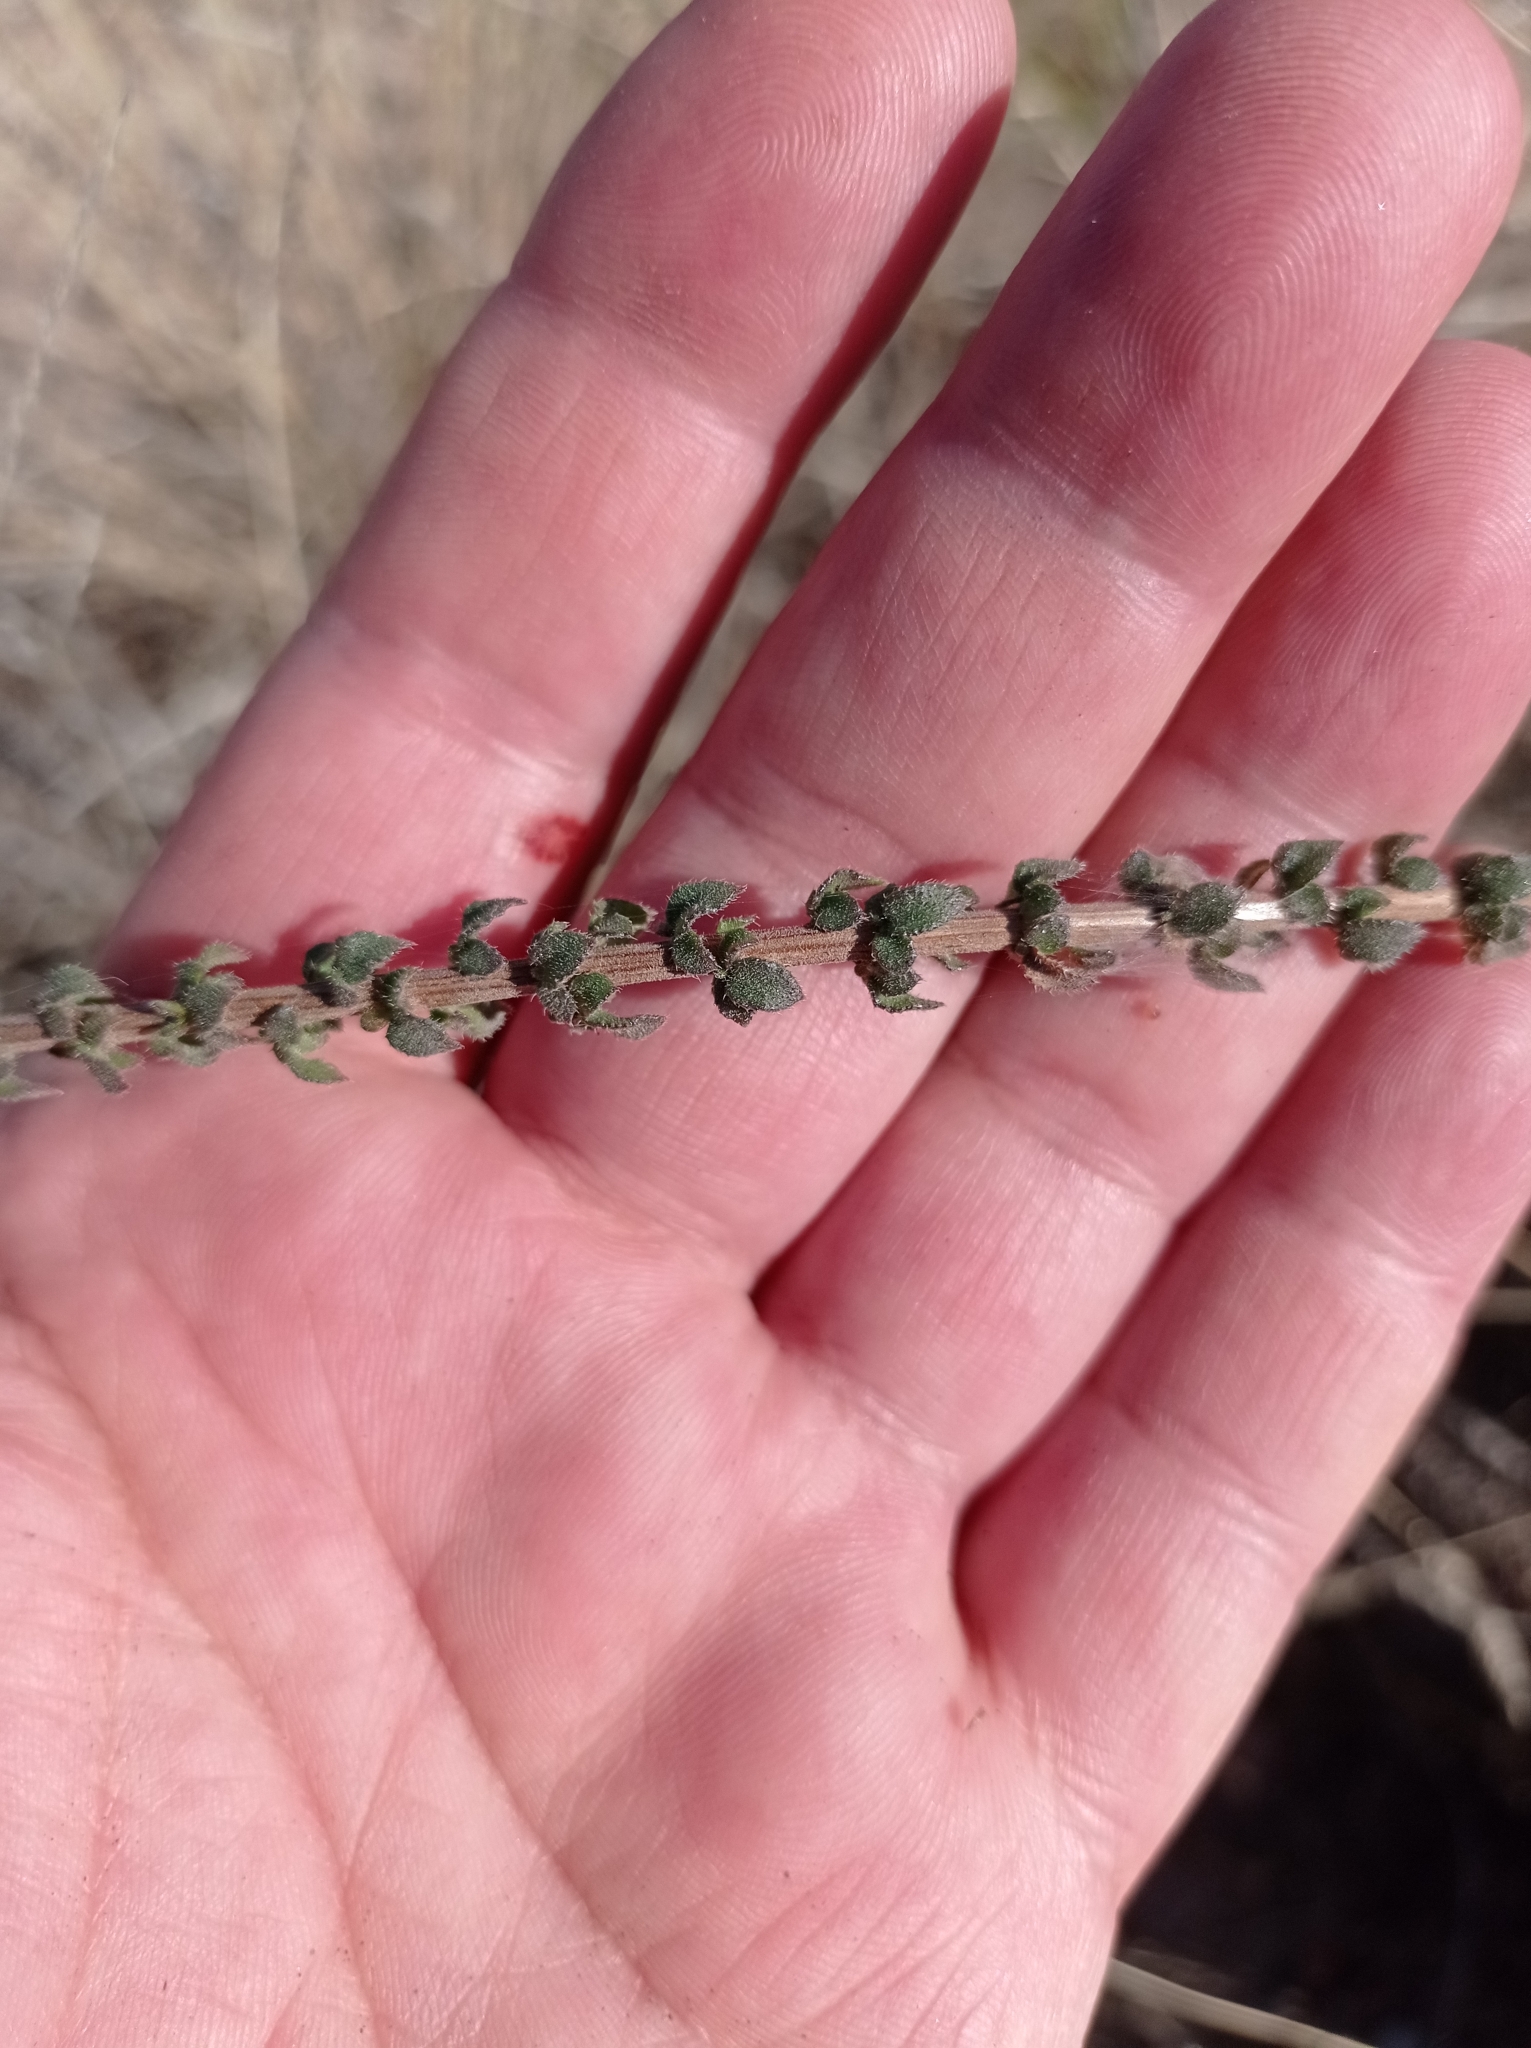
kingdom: Plantae
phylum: Tracheophyta
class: Magnoliopsida
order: Lamiales
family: Verbenaceae
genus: Mulguraea
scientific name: Mulguraea aspera
